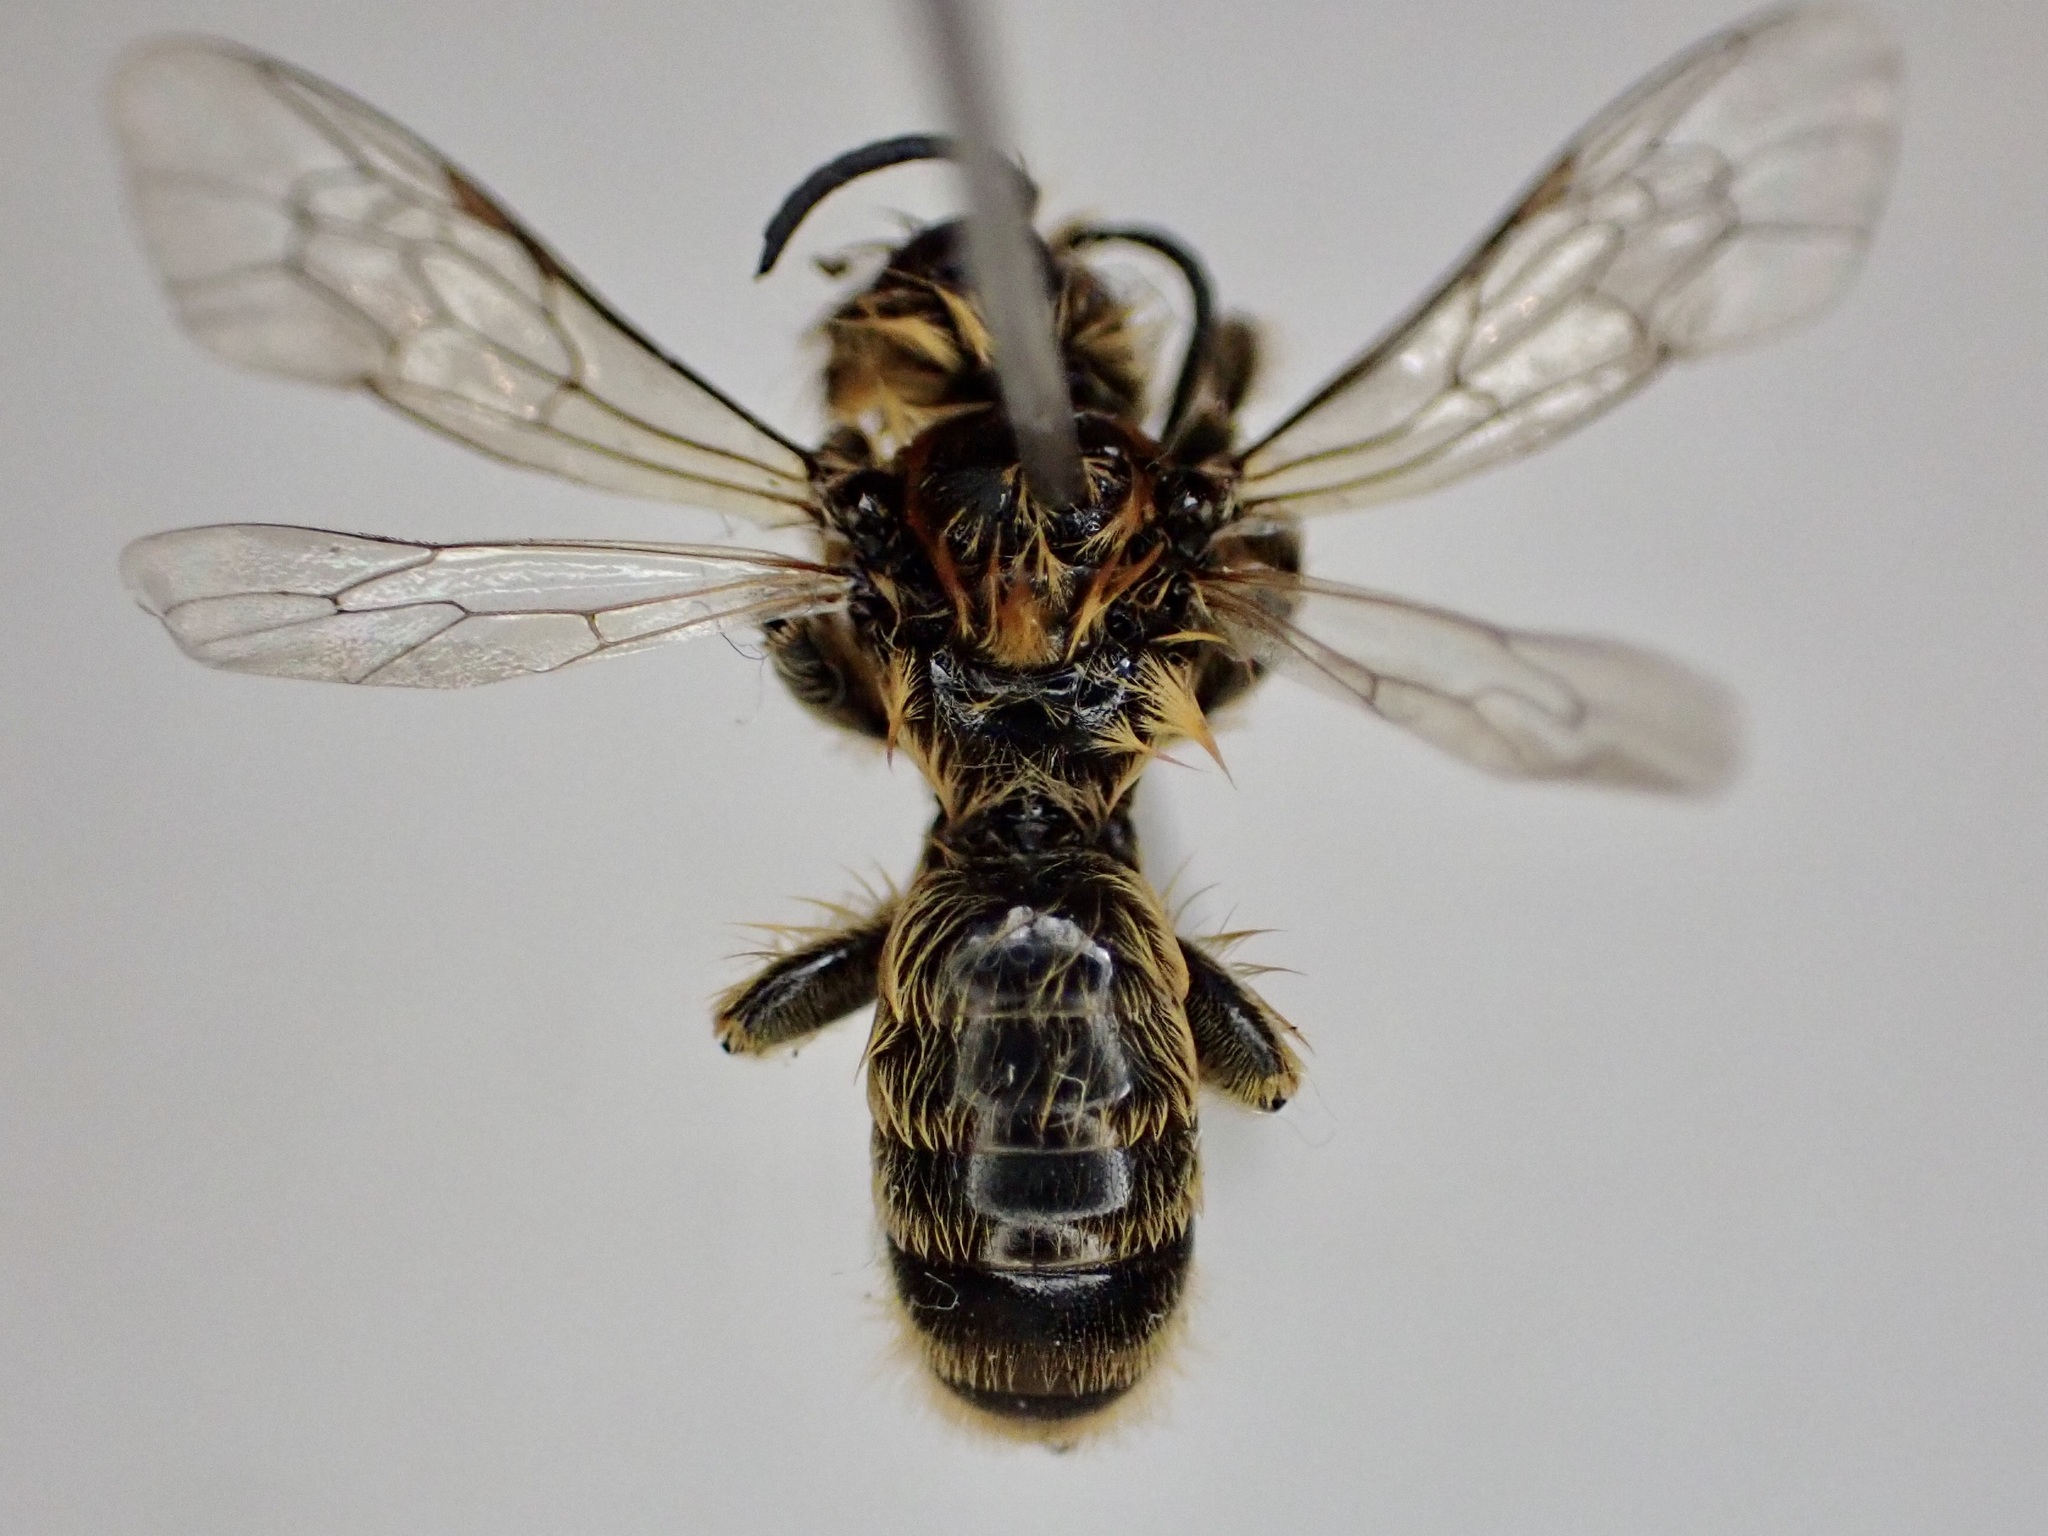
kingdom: Animalia
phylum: Arthropoda
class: Insecta
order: Hymenoptera
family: Colletidae
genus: Leioproctus
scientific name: Leioproctus fulvescens
